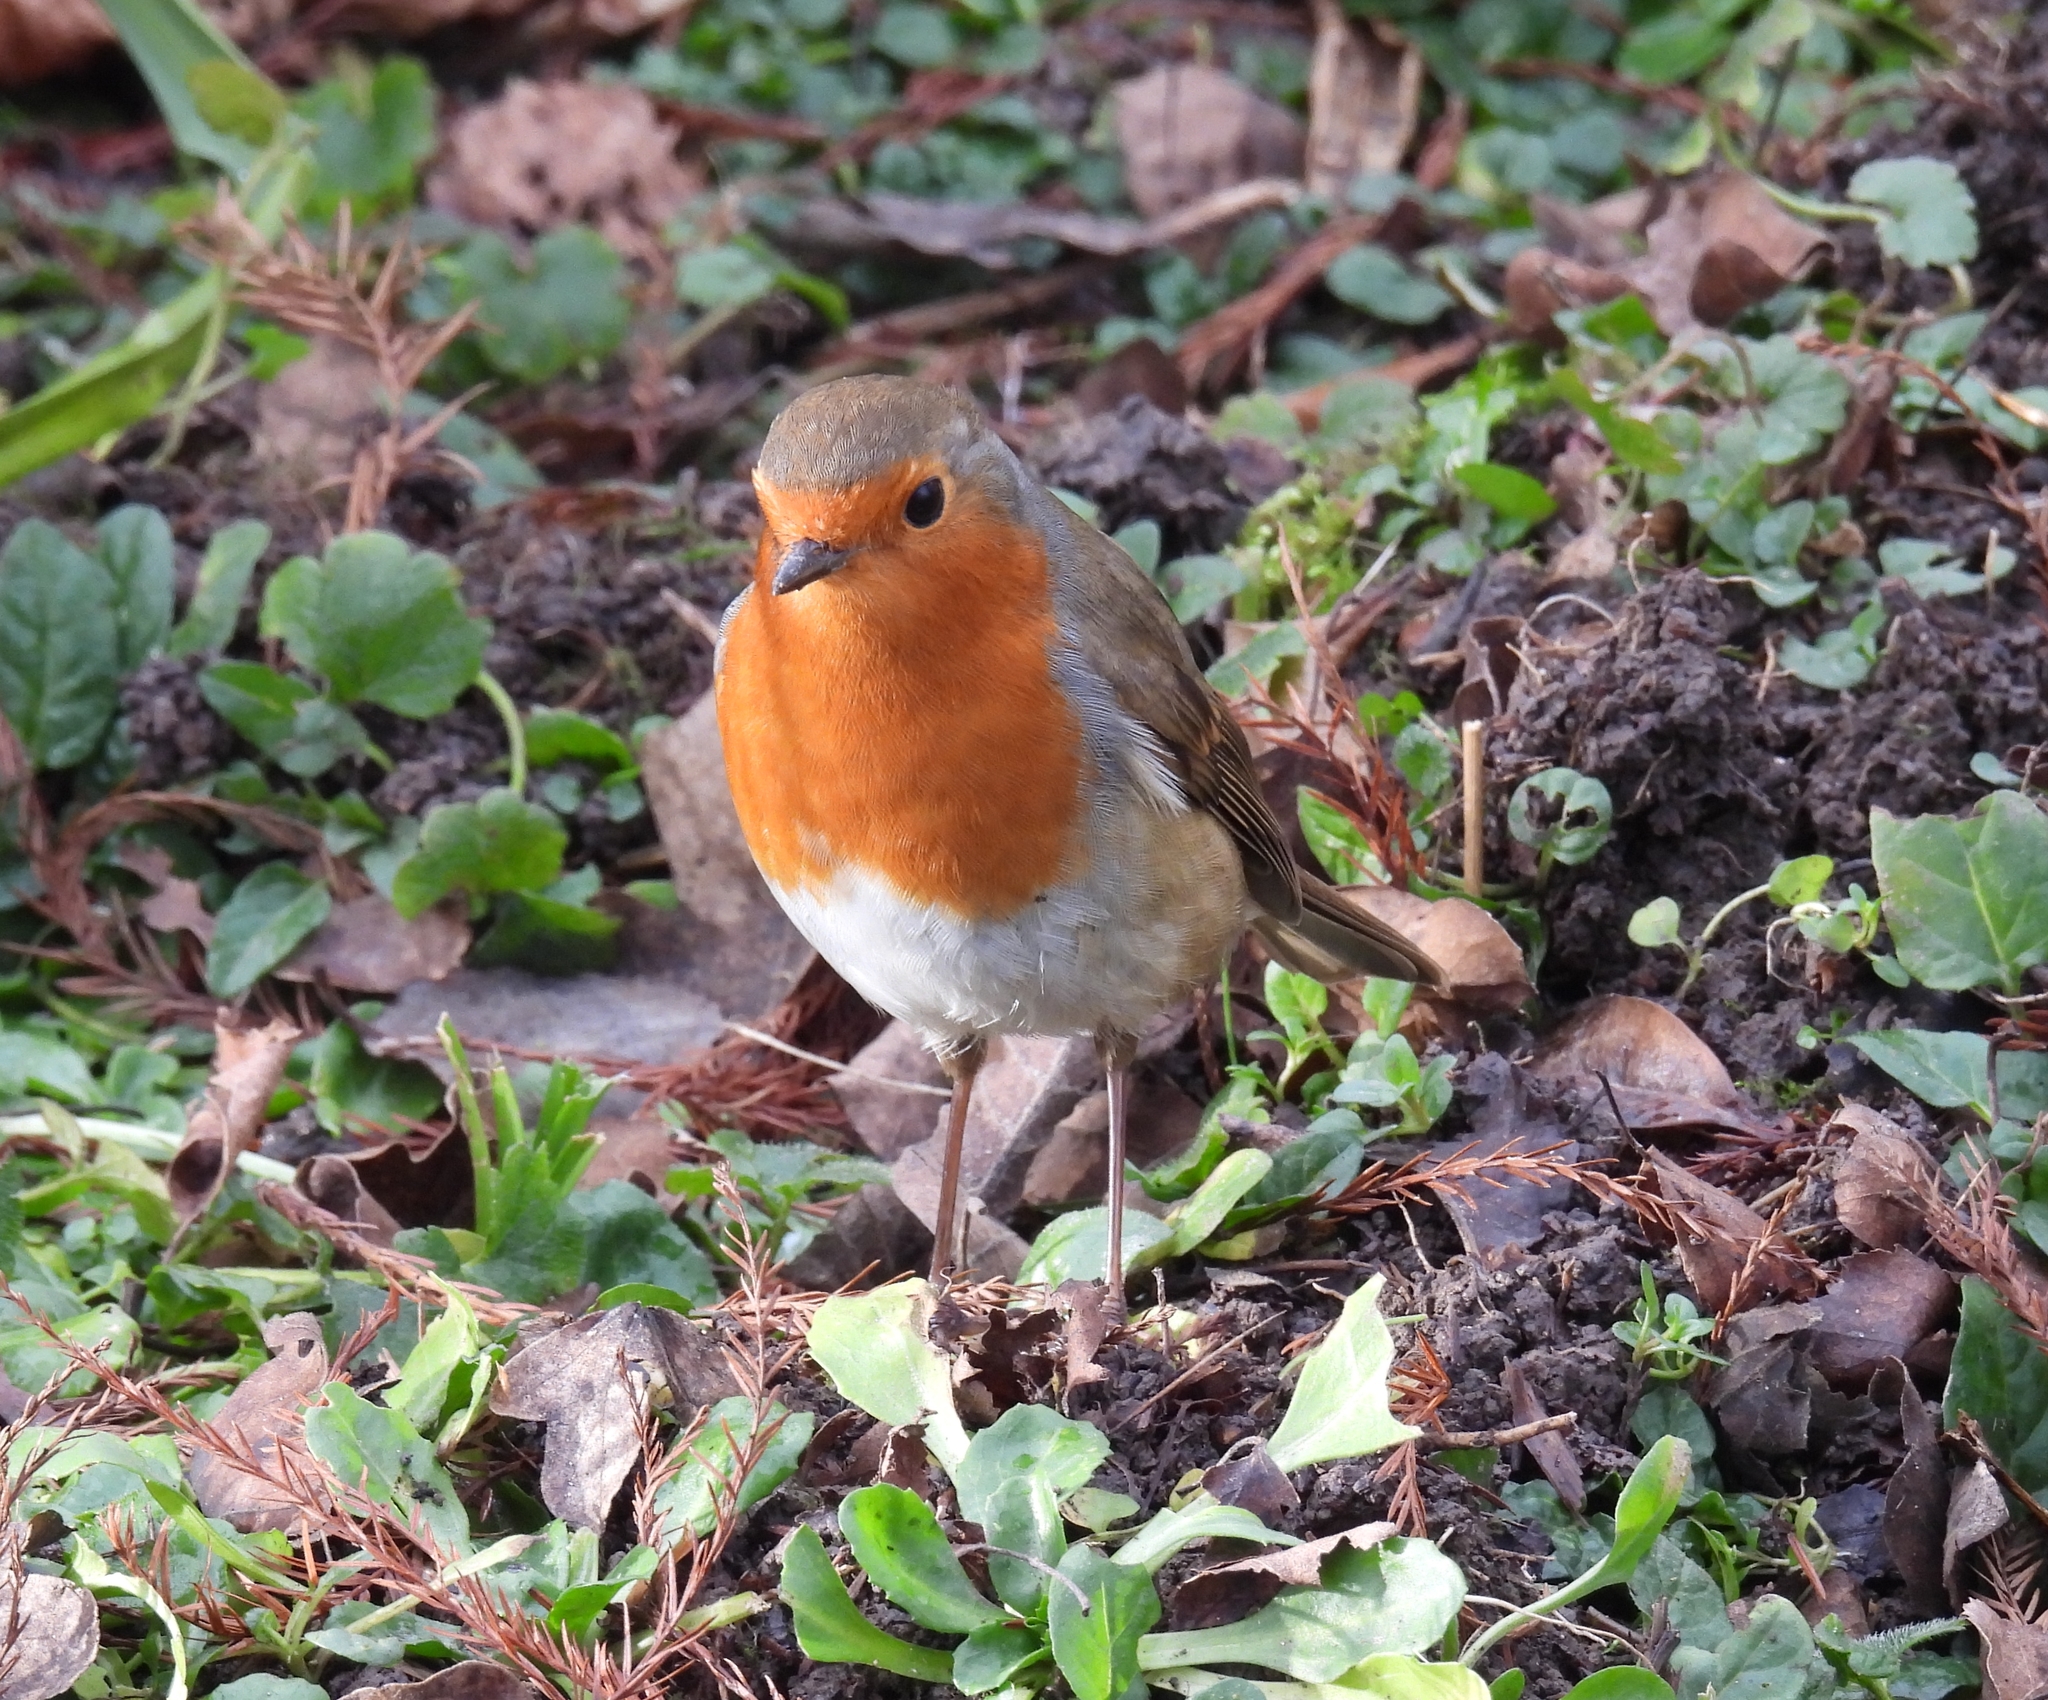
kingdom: Animalia
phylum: Chordata
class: Aves
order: Passeriformes
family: Muscicapidae
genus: Erithacus
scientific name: Erithacus rubecula
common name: European robin
